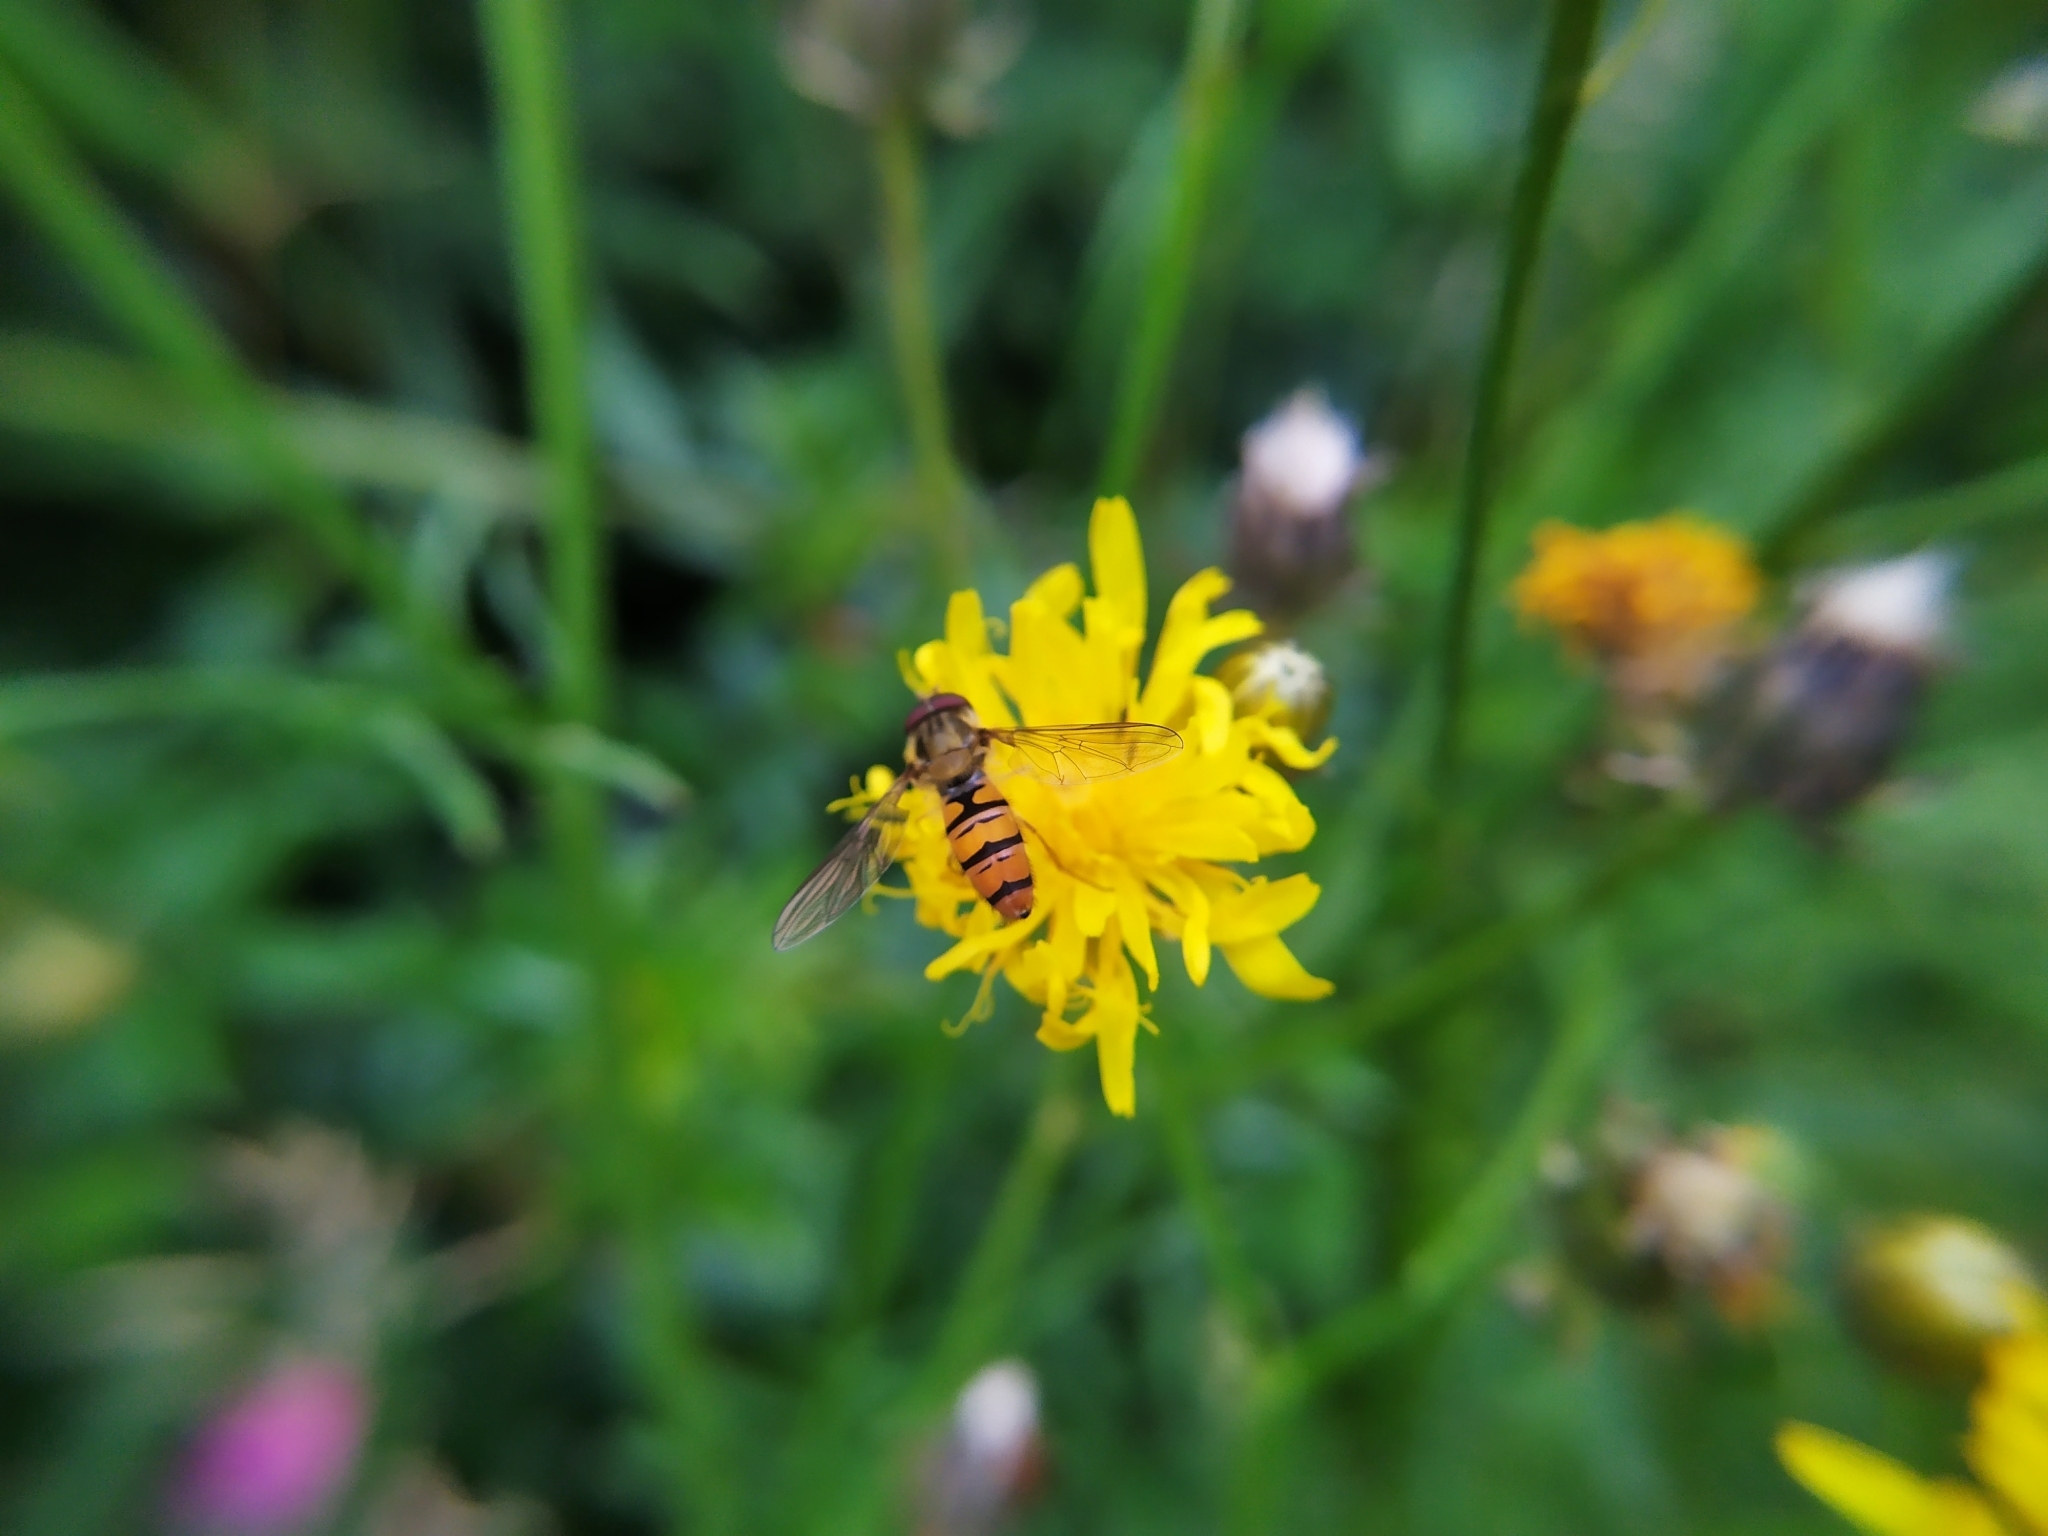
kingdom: Animalia
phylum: Arthropoda
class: Insecta
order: Diptera
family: Syrphidae
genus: Episyrphus
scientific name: Episyrphus balteatus
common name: Marmalade hoverfly
